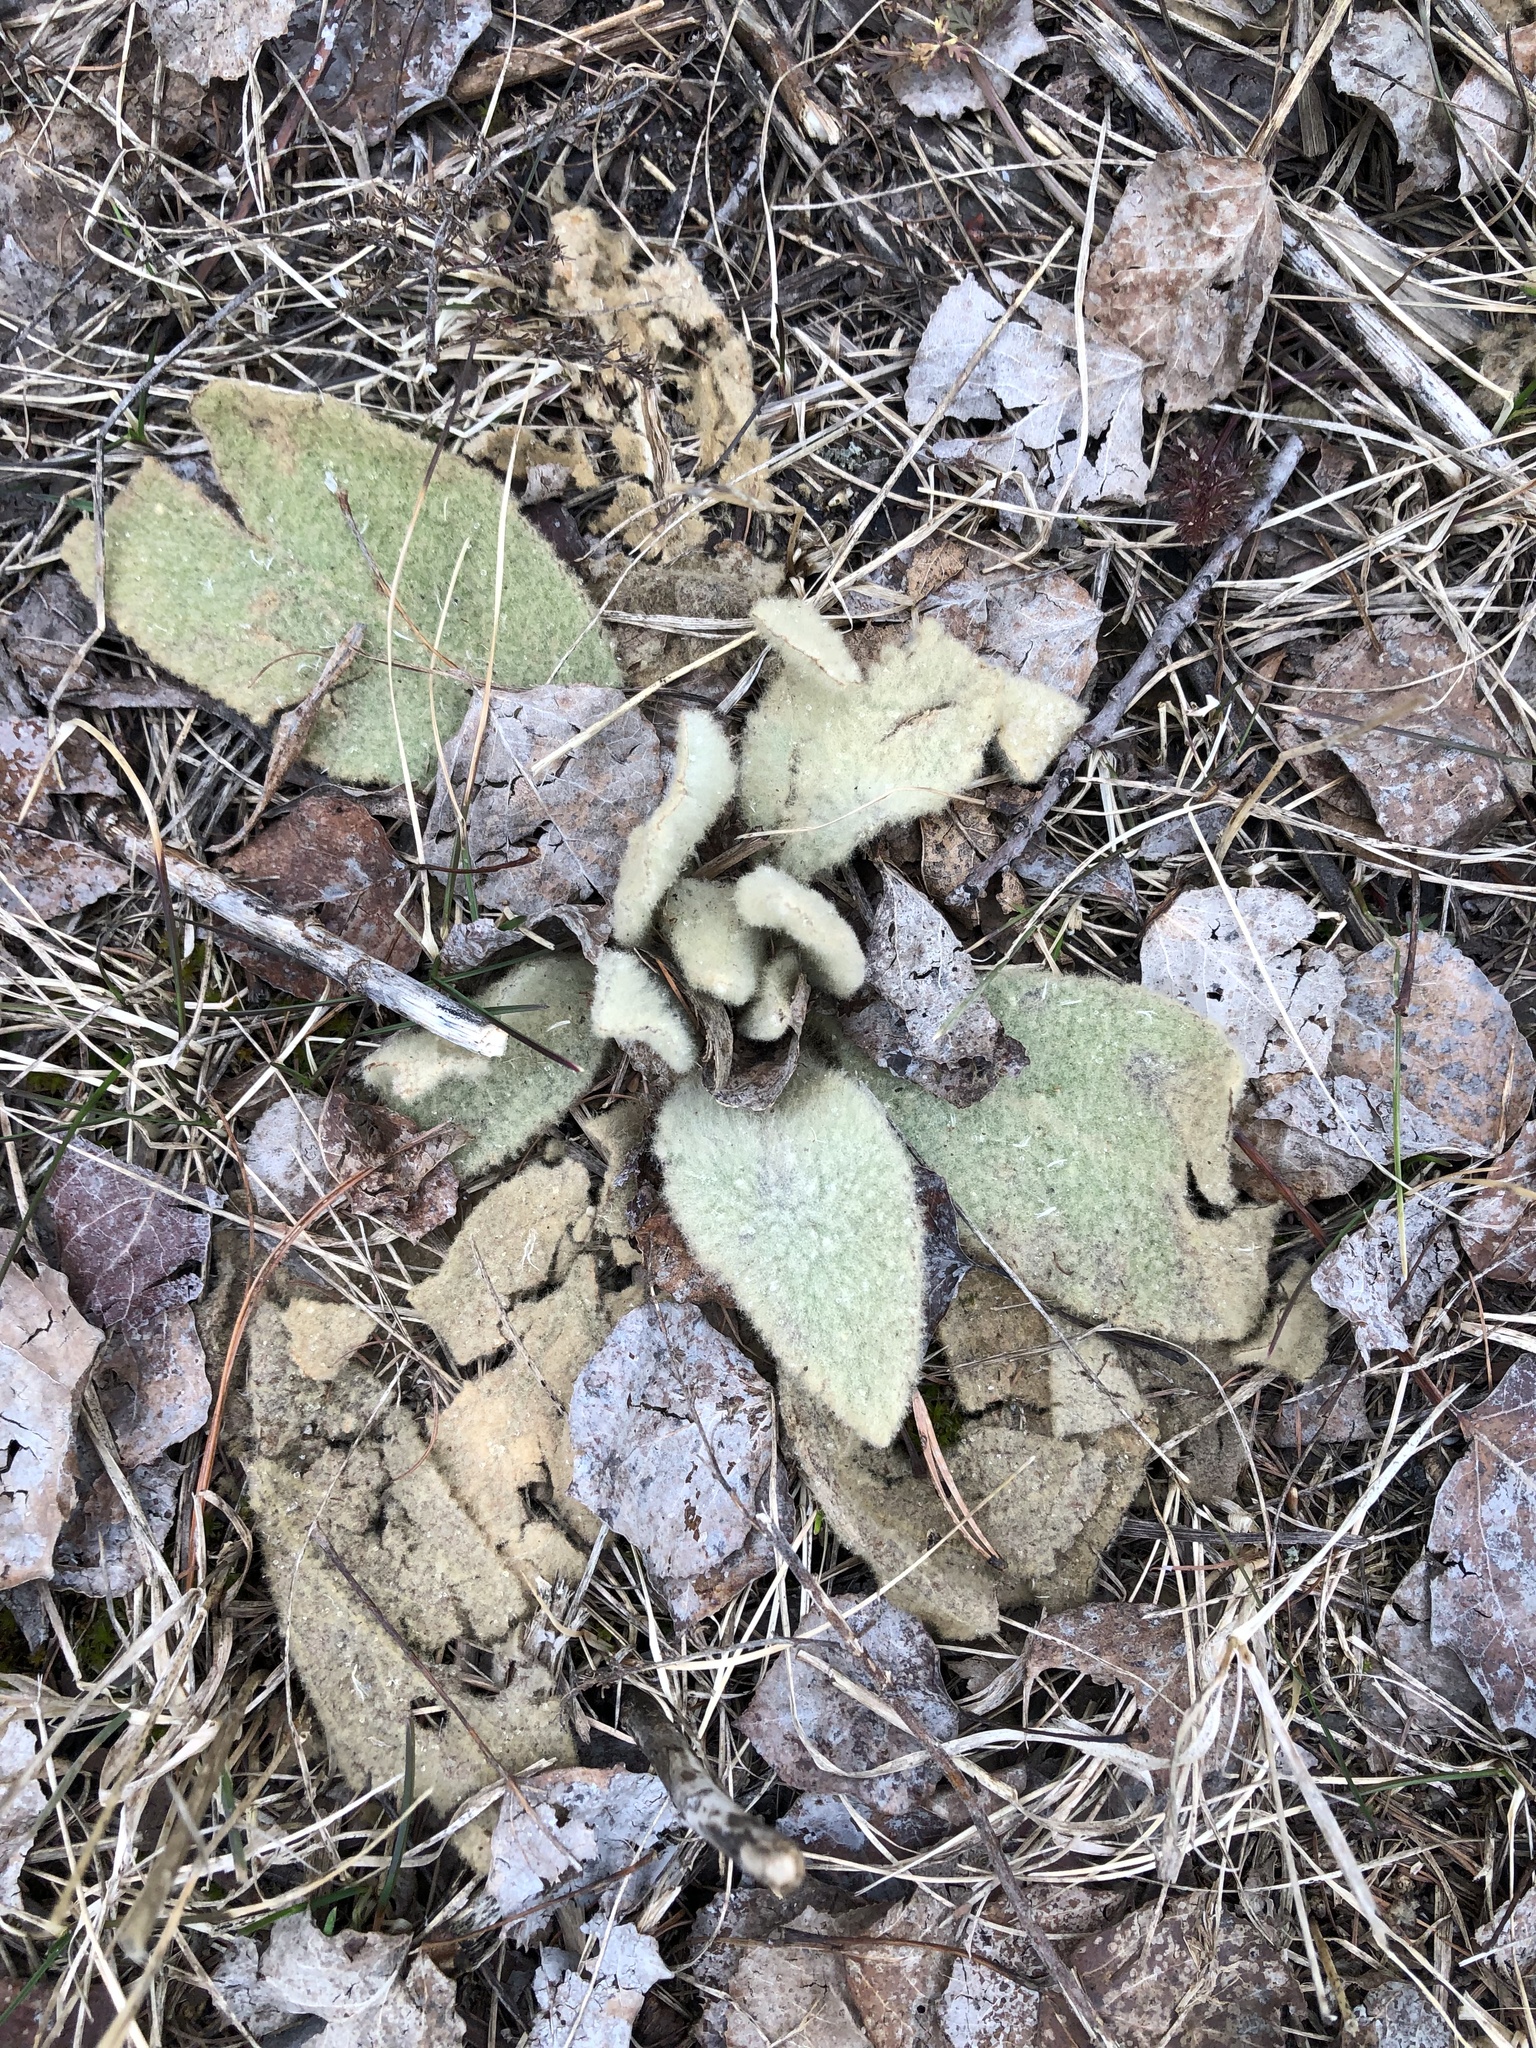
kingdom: Plantae
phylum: Tracheophyta
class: Magnoliopsida
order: Lamiales
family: Scrophulariaceae
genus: Verbascum
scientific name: Verbascum thapsus
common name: Common mullein
